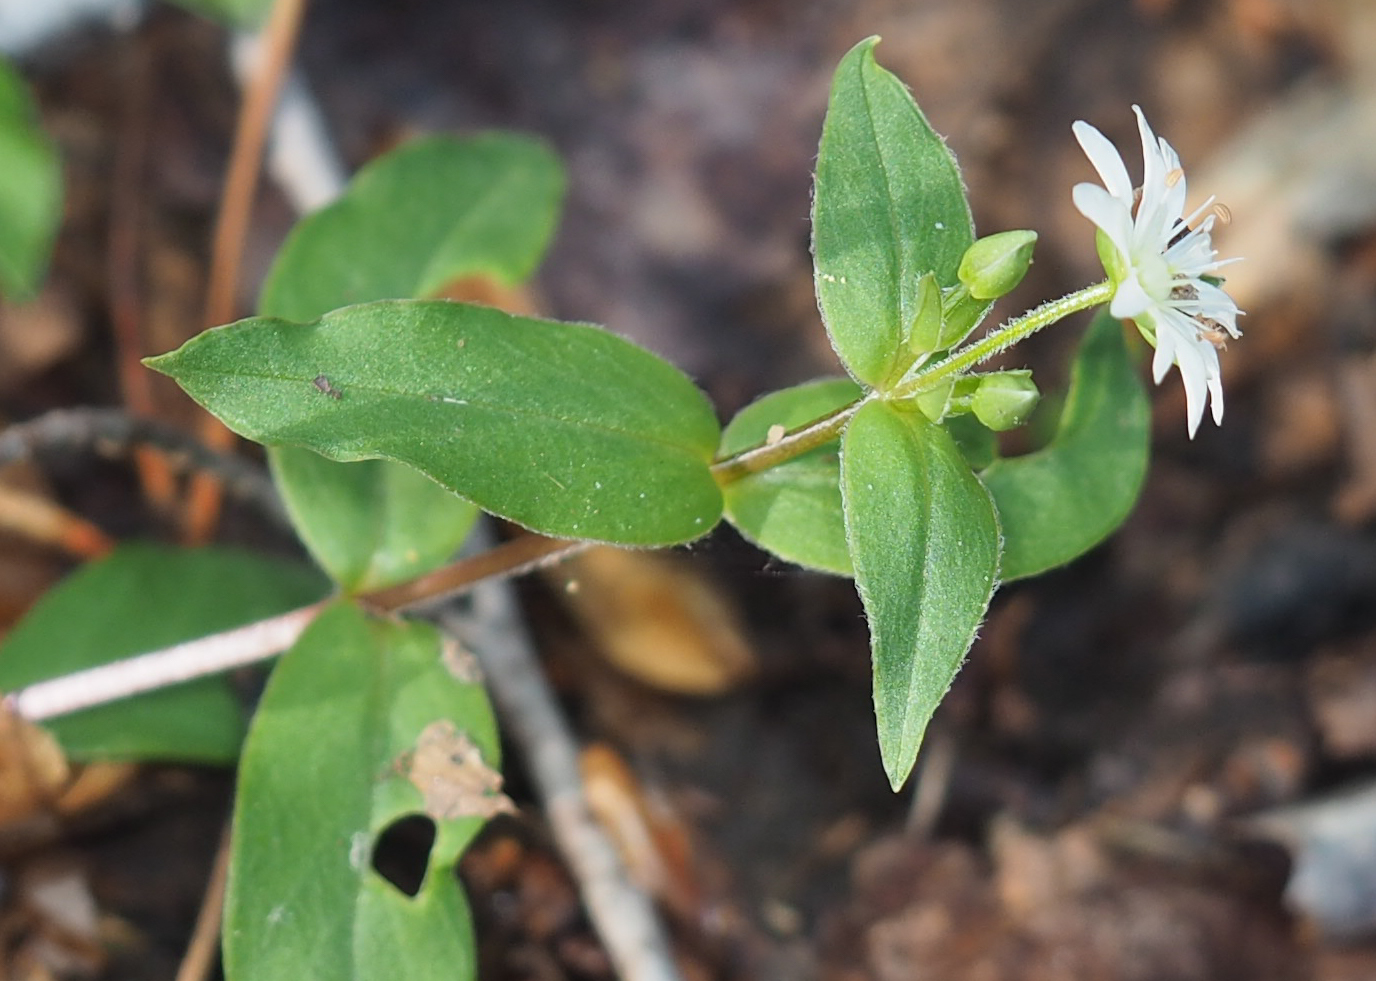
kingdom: Plantae
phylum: Tracheophyta
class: Magnoliopsida
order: Caryophyllales
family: Caryophyllaceae
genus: Stellaria
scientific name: Stellaria pubera
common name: Star chickweed
